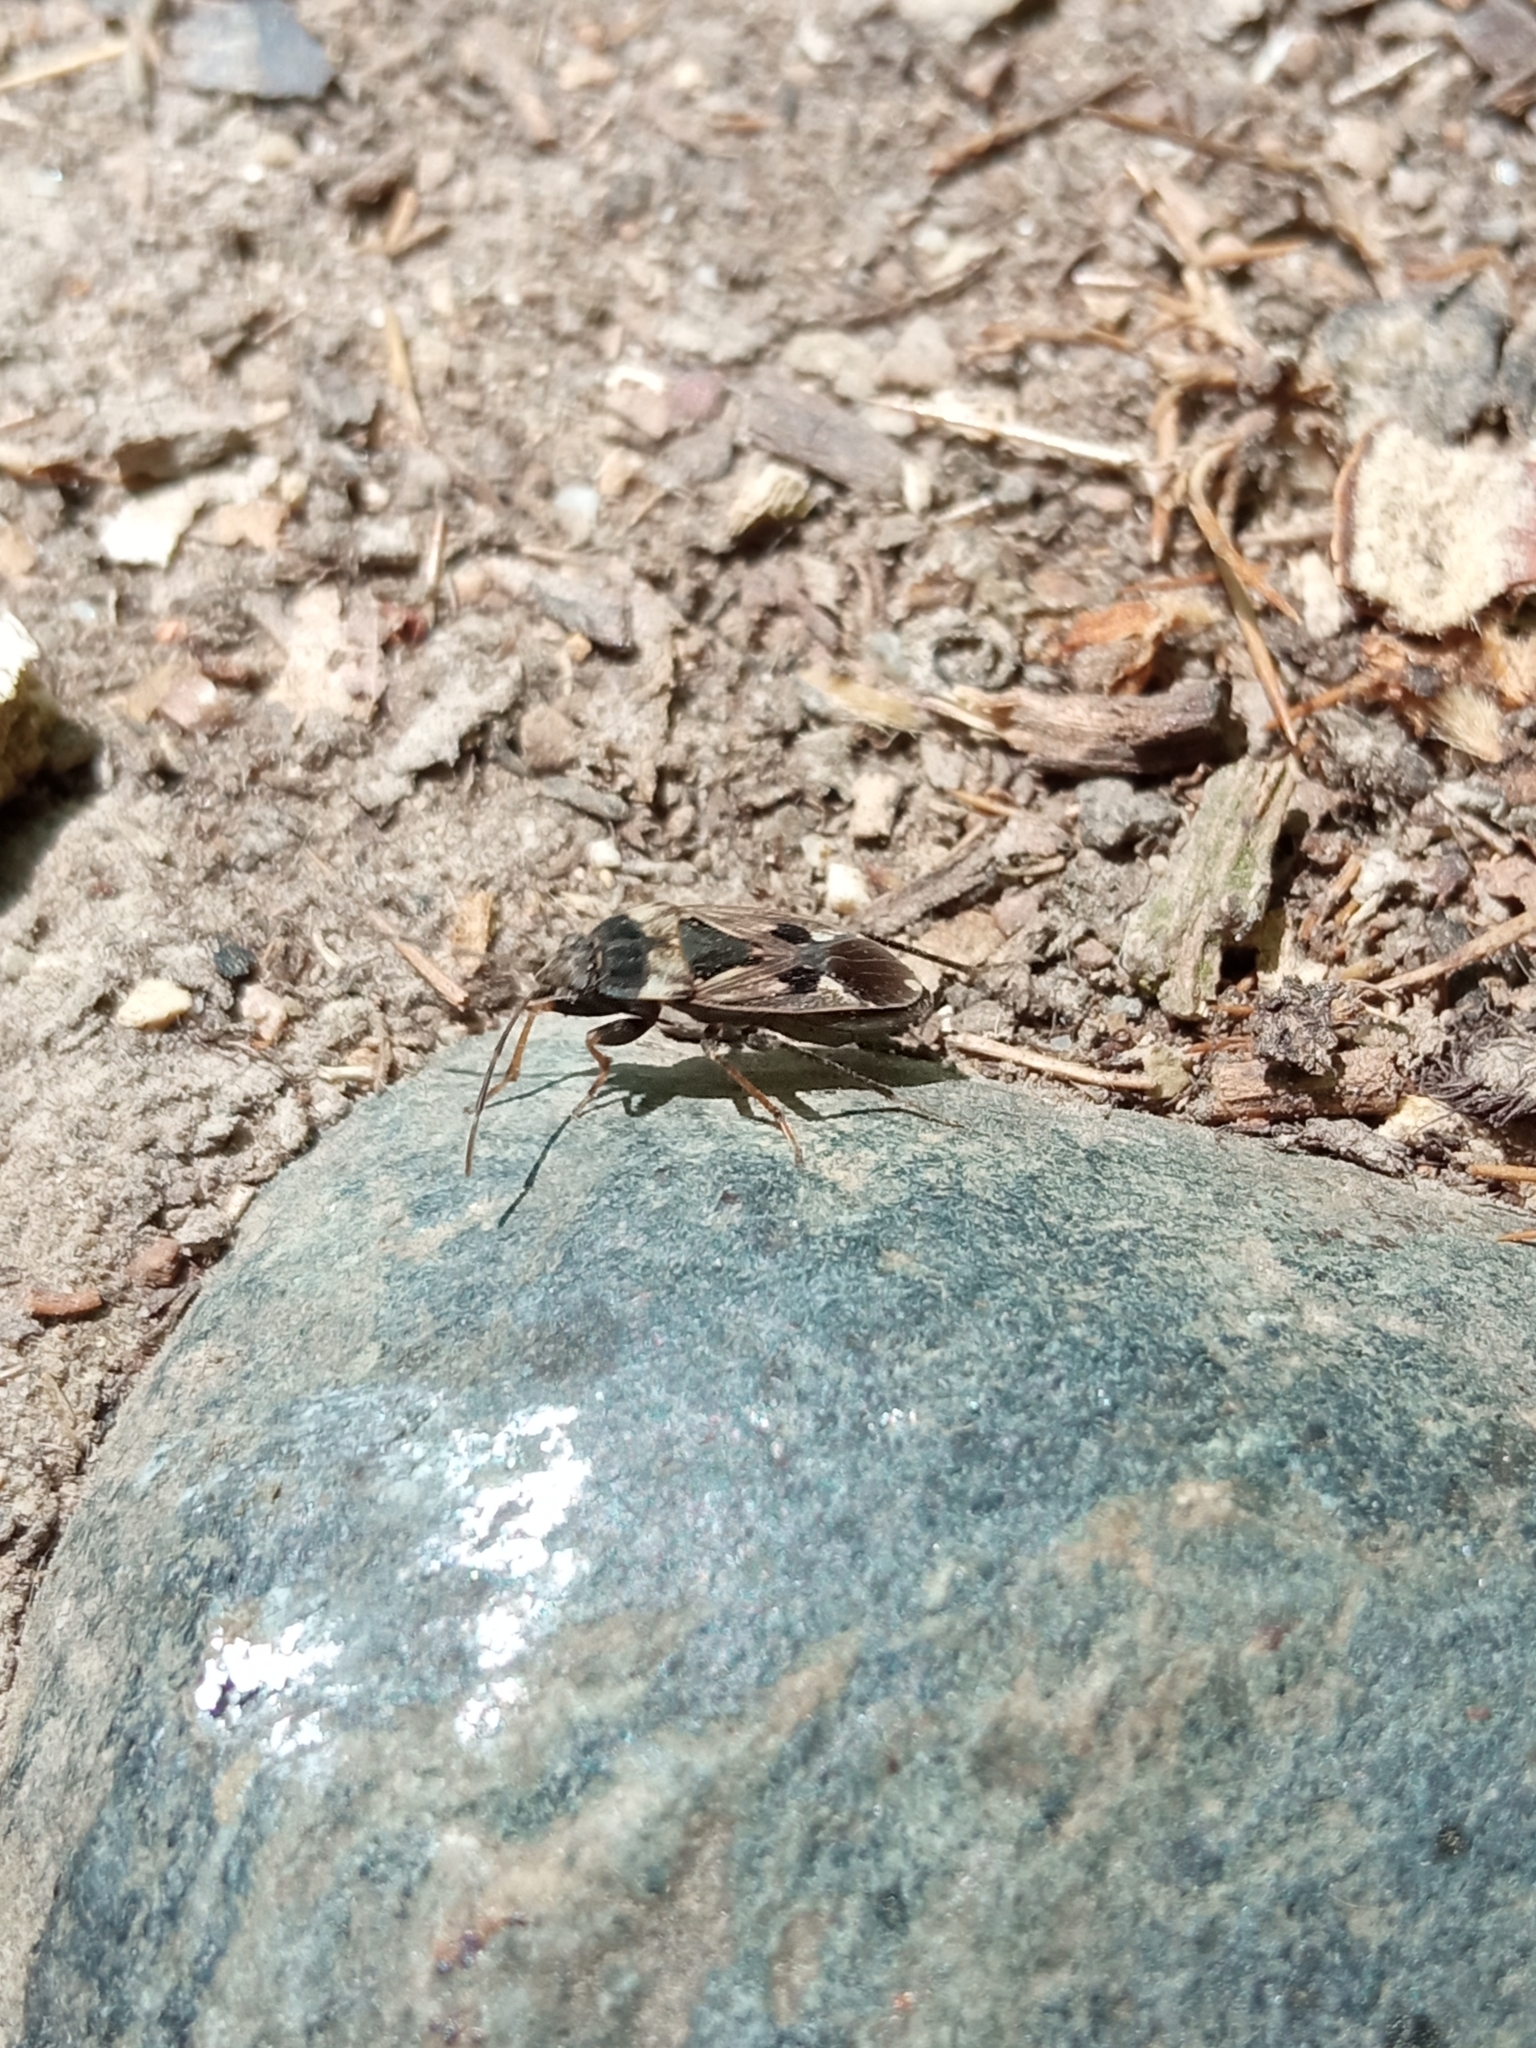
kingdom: Animalia
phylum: Arthropoda
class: Insecta
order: Hemiptera
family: Rhyparochromidae
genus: Rhyparochromus
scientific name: Rhyparochromus vulgaris
